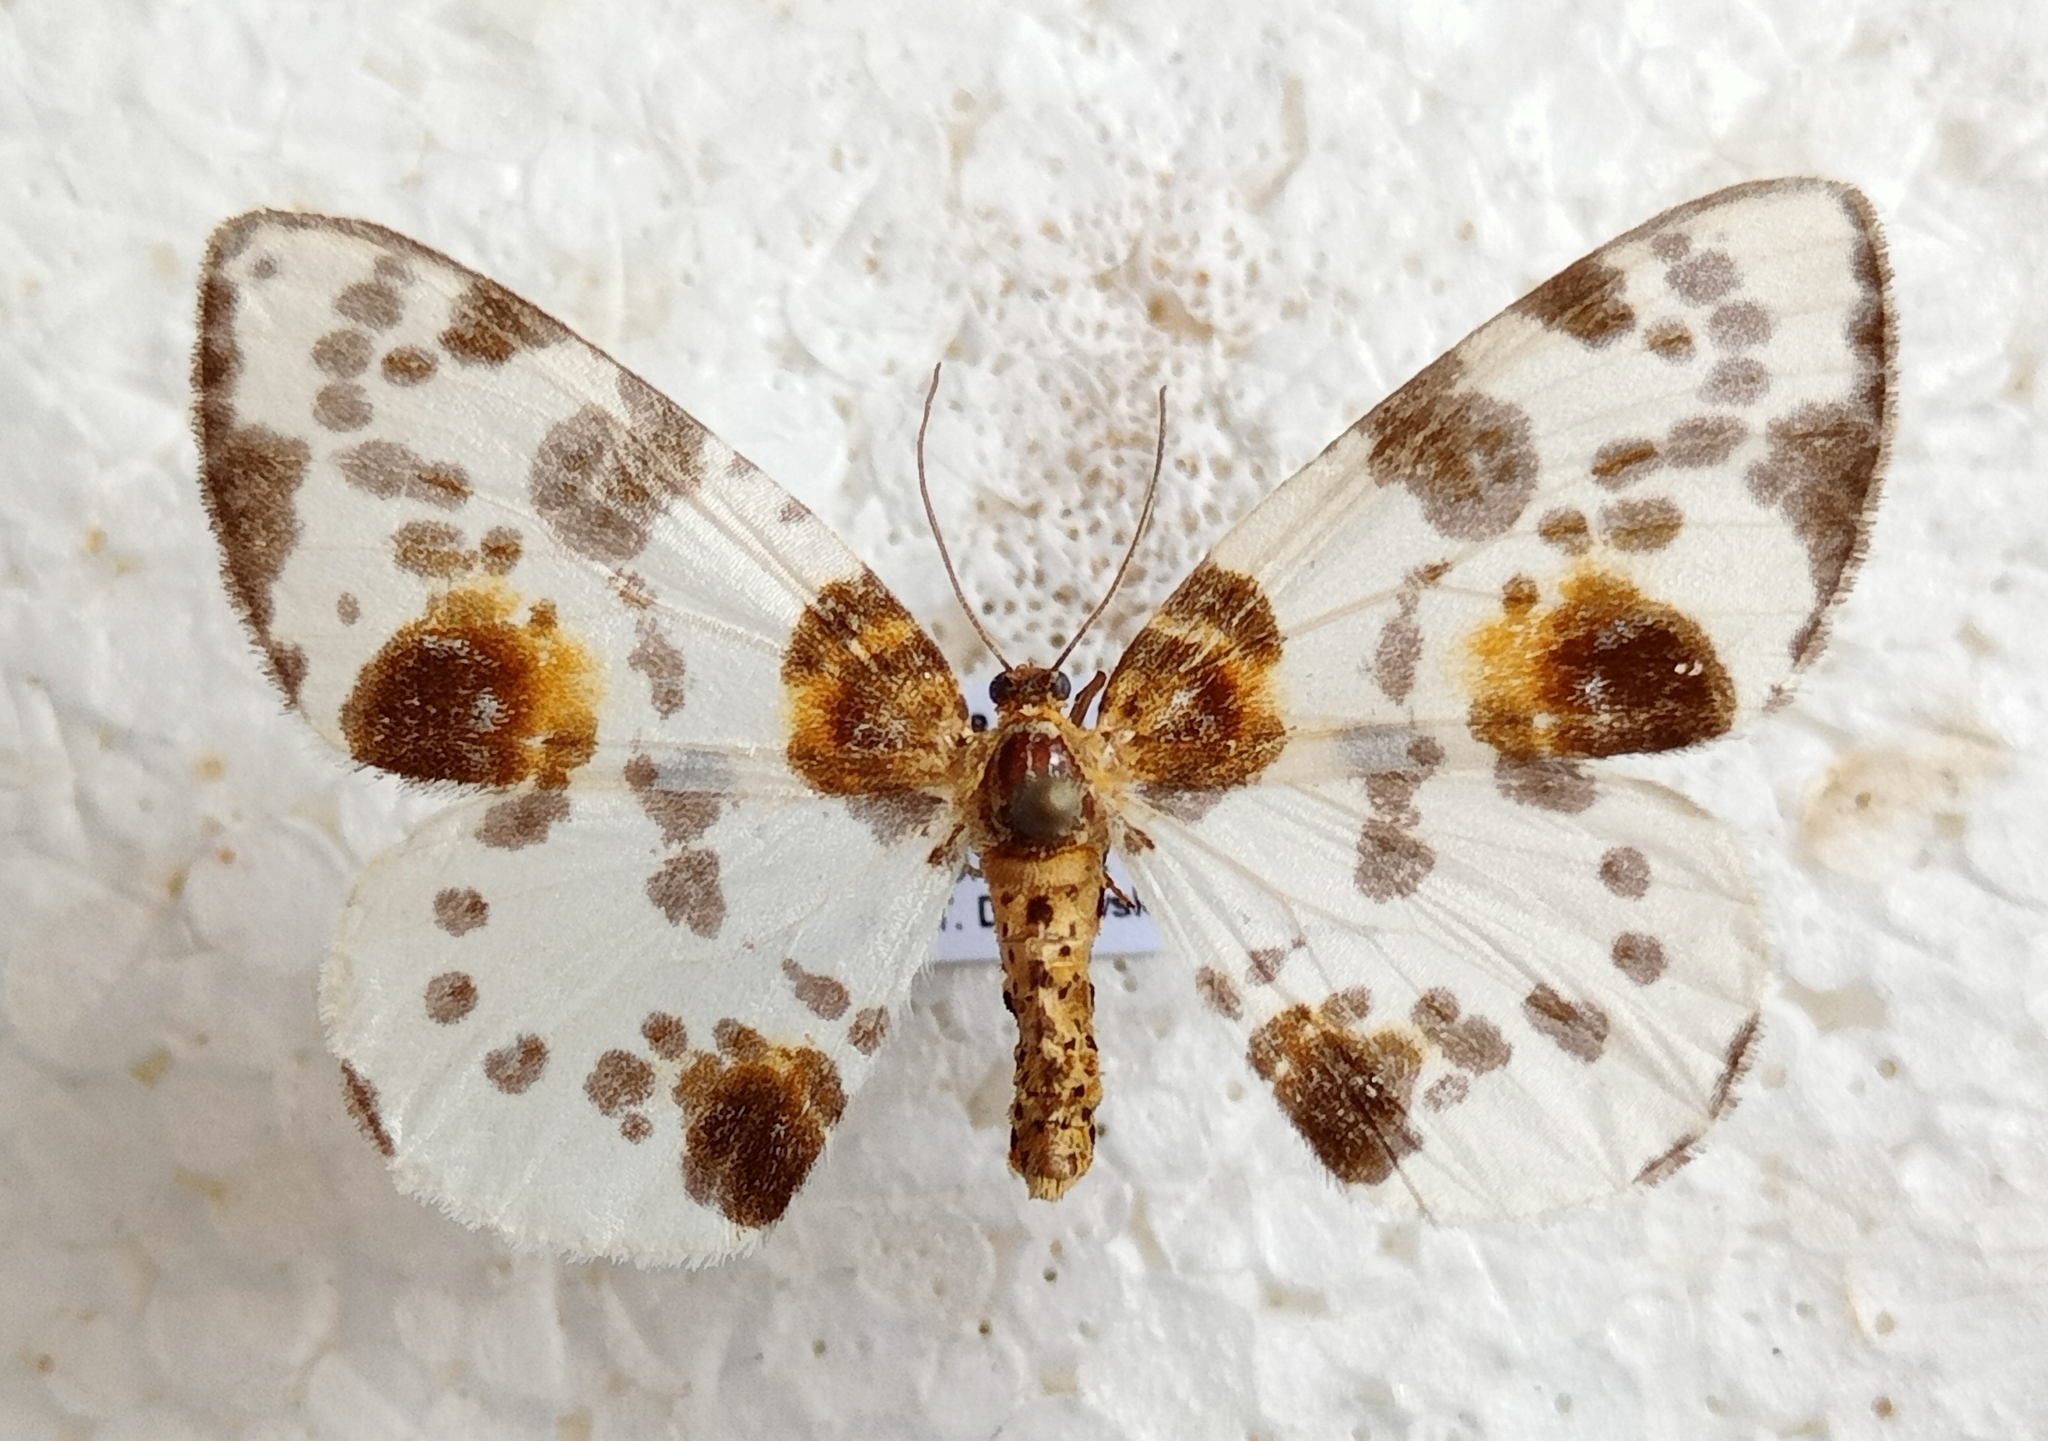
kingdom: Animalia
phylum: Arthropoda
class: Insecta
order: Lepidoptera
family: Geometridae
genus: Abraxas
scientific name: Abraxas sylvata
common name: Clouded magpie
